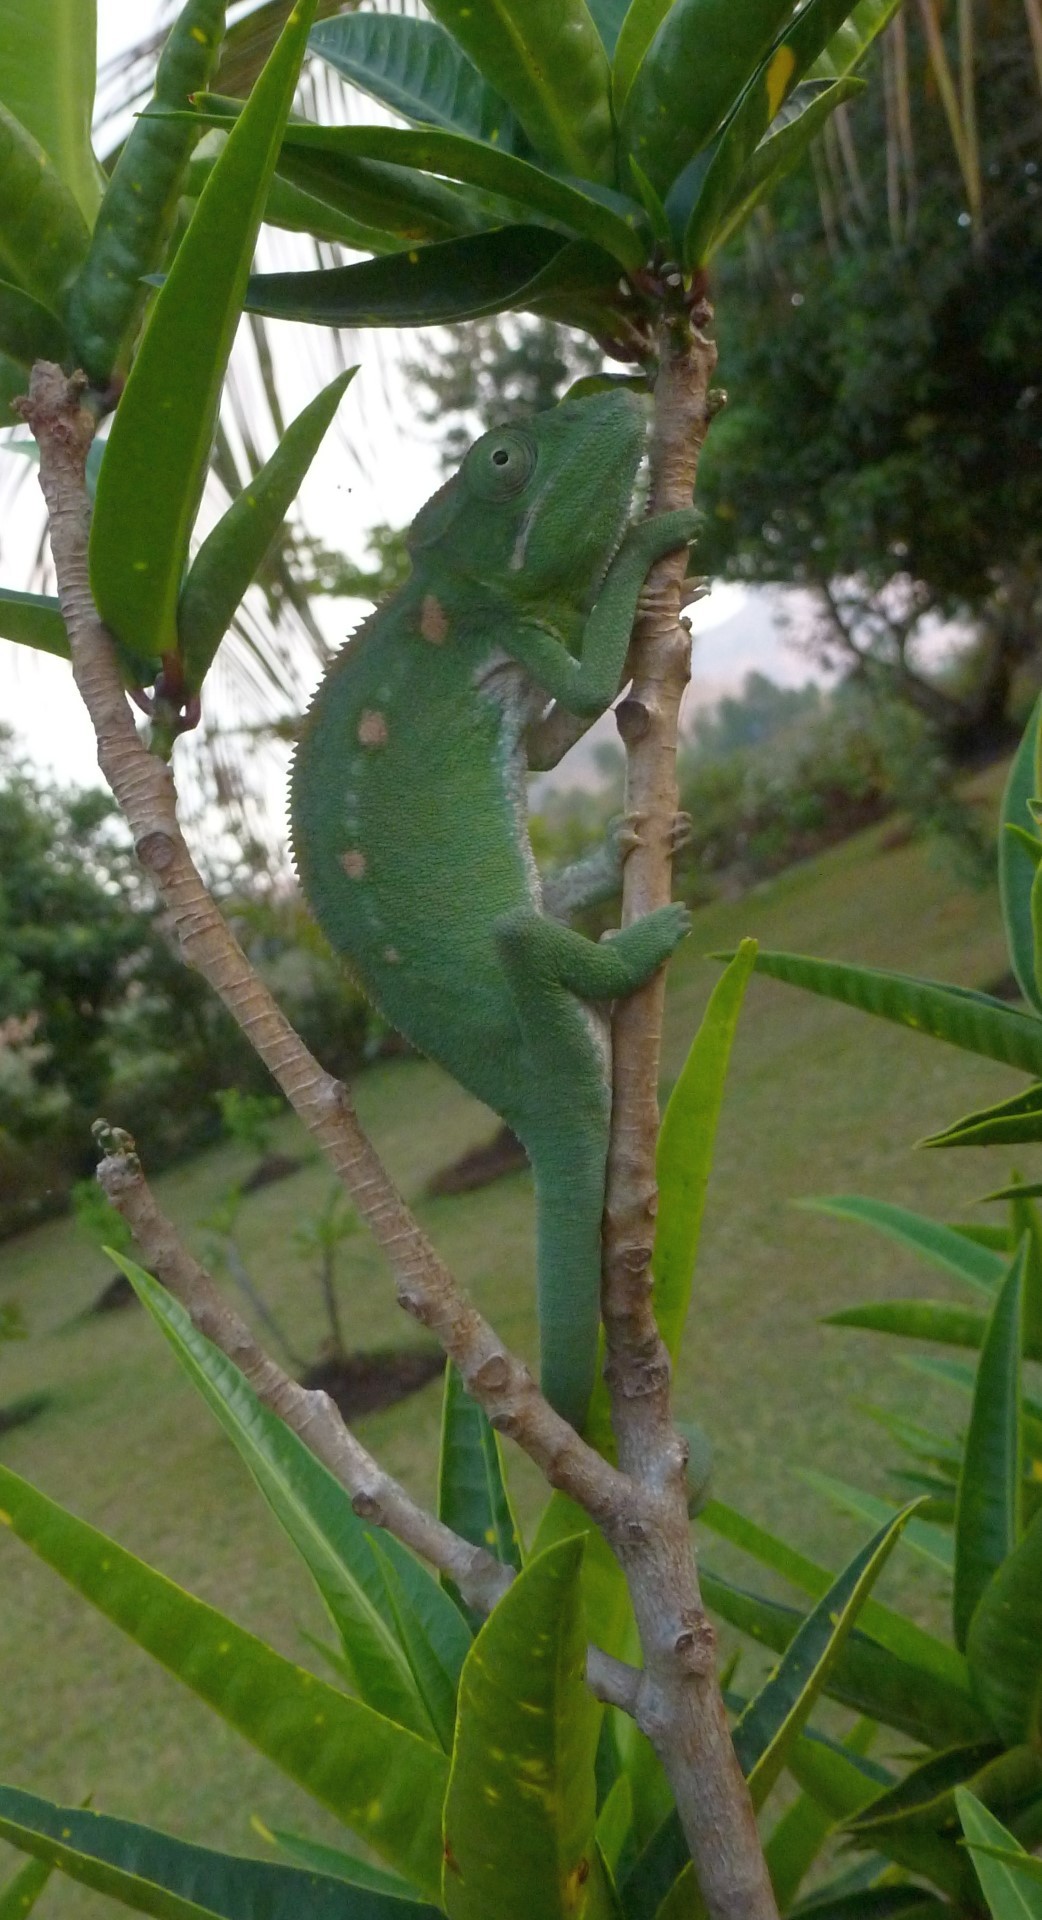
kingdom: Animalia
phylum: Chordata
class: Squamata
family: Chamaeleonidae
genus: Furcifer
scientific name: Furcifer oustaleti
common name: Oustalet's chameleon
